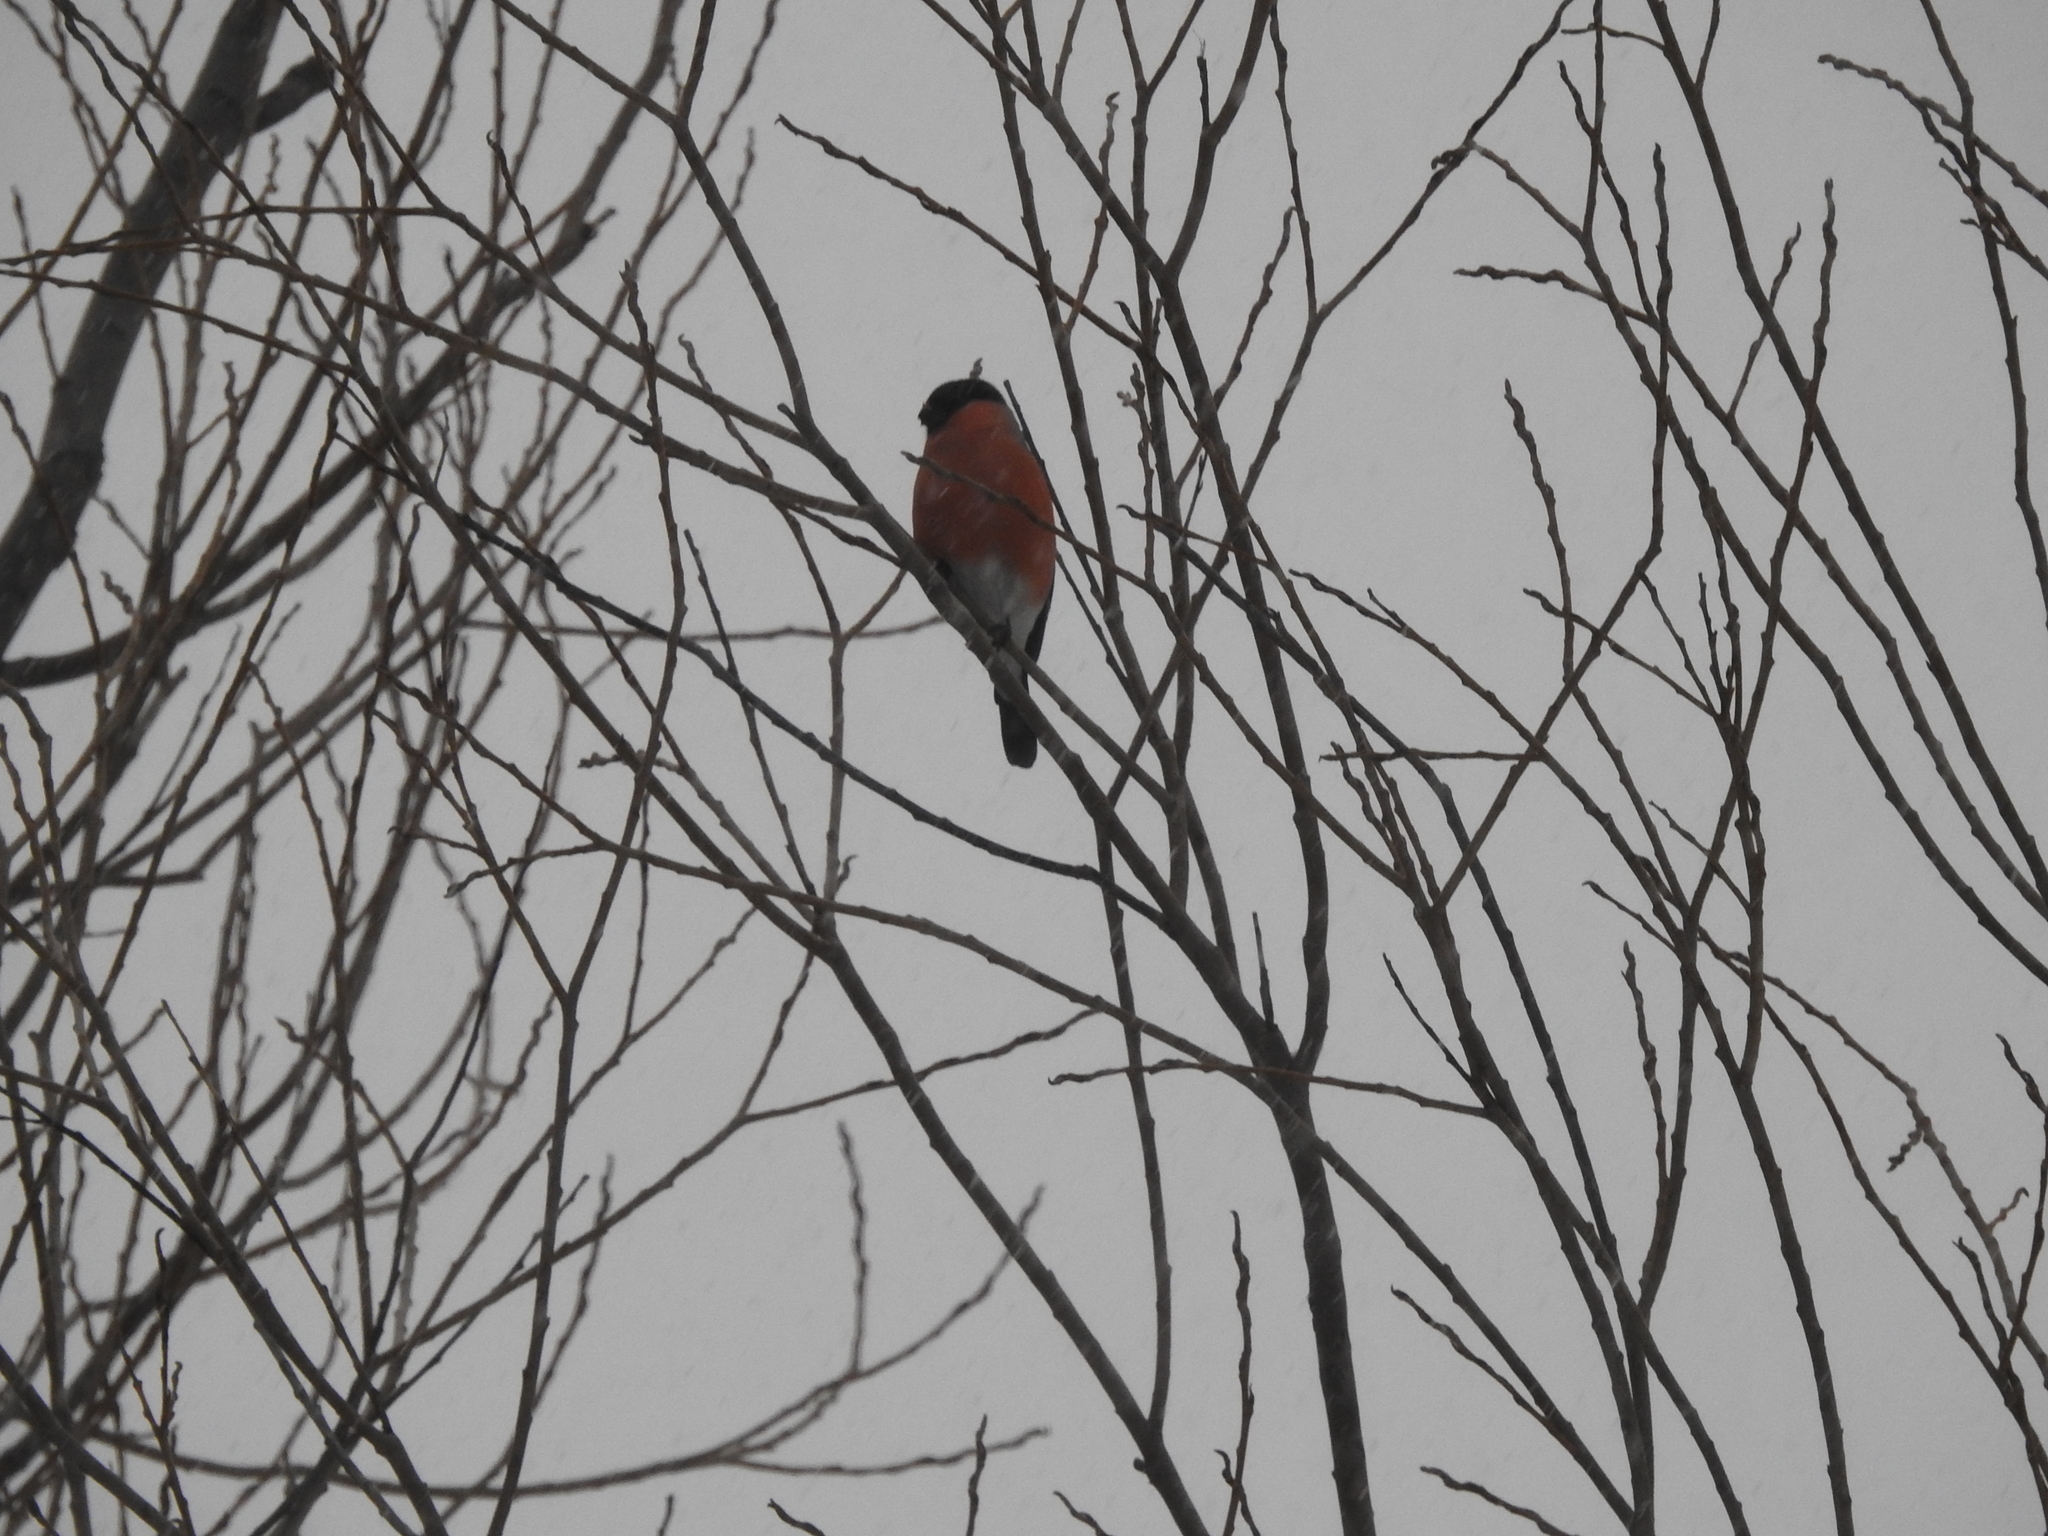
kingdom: Animalia
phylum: Chordata
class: Aves
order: Passeriformes
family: Fringillidae
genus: Pyrrhula
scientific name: Pyrrhula pyrrhula
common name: Eurasian bullfinch
